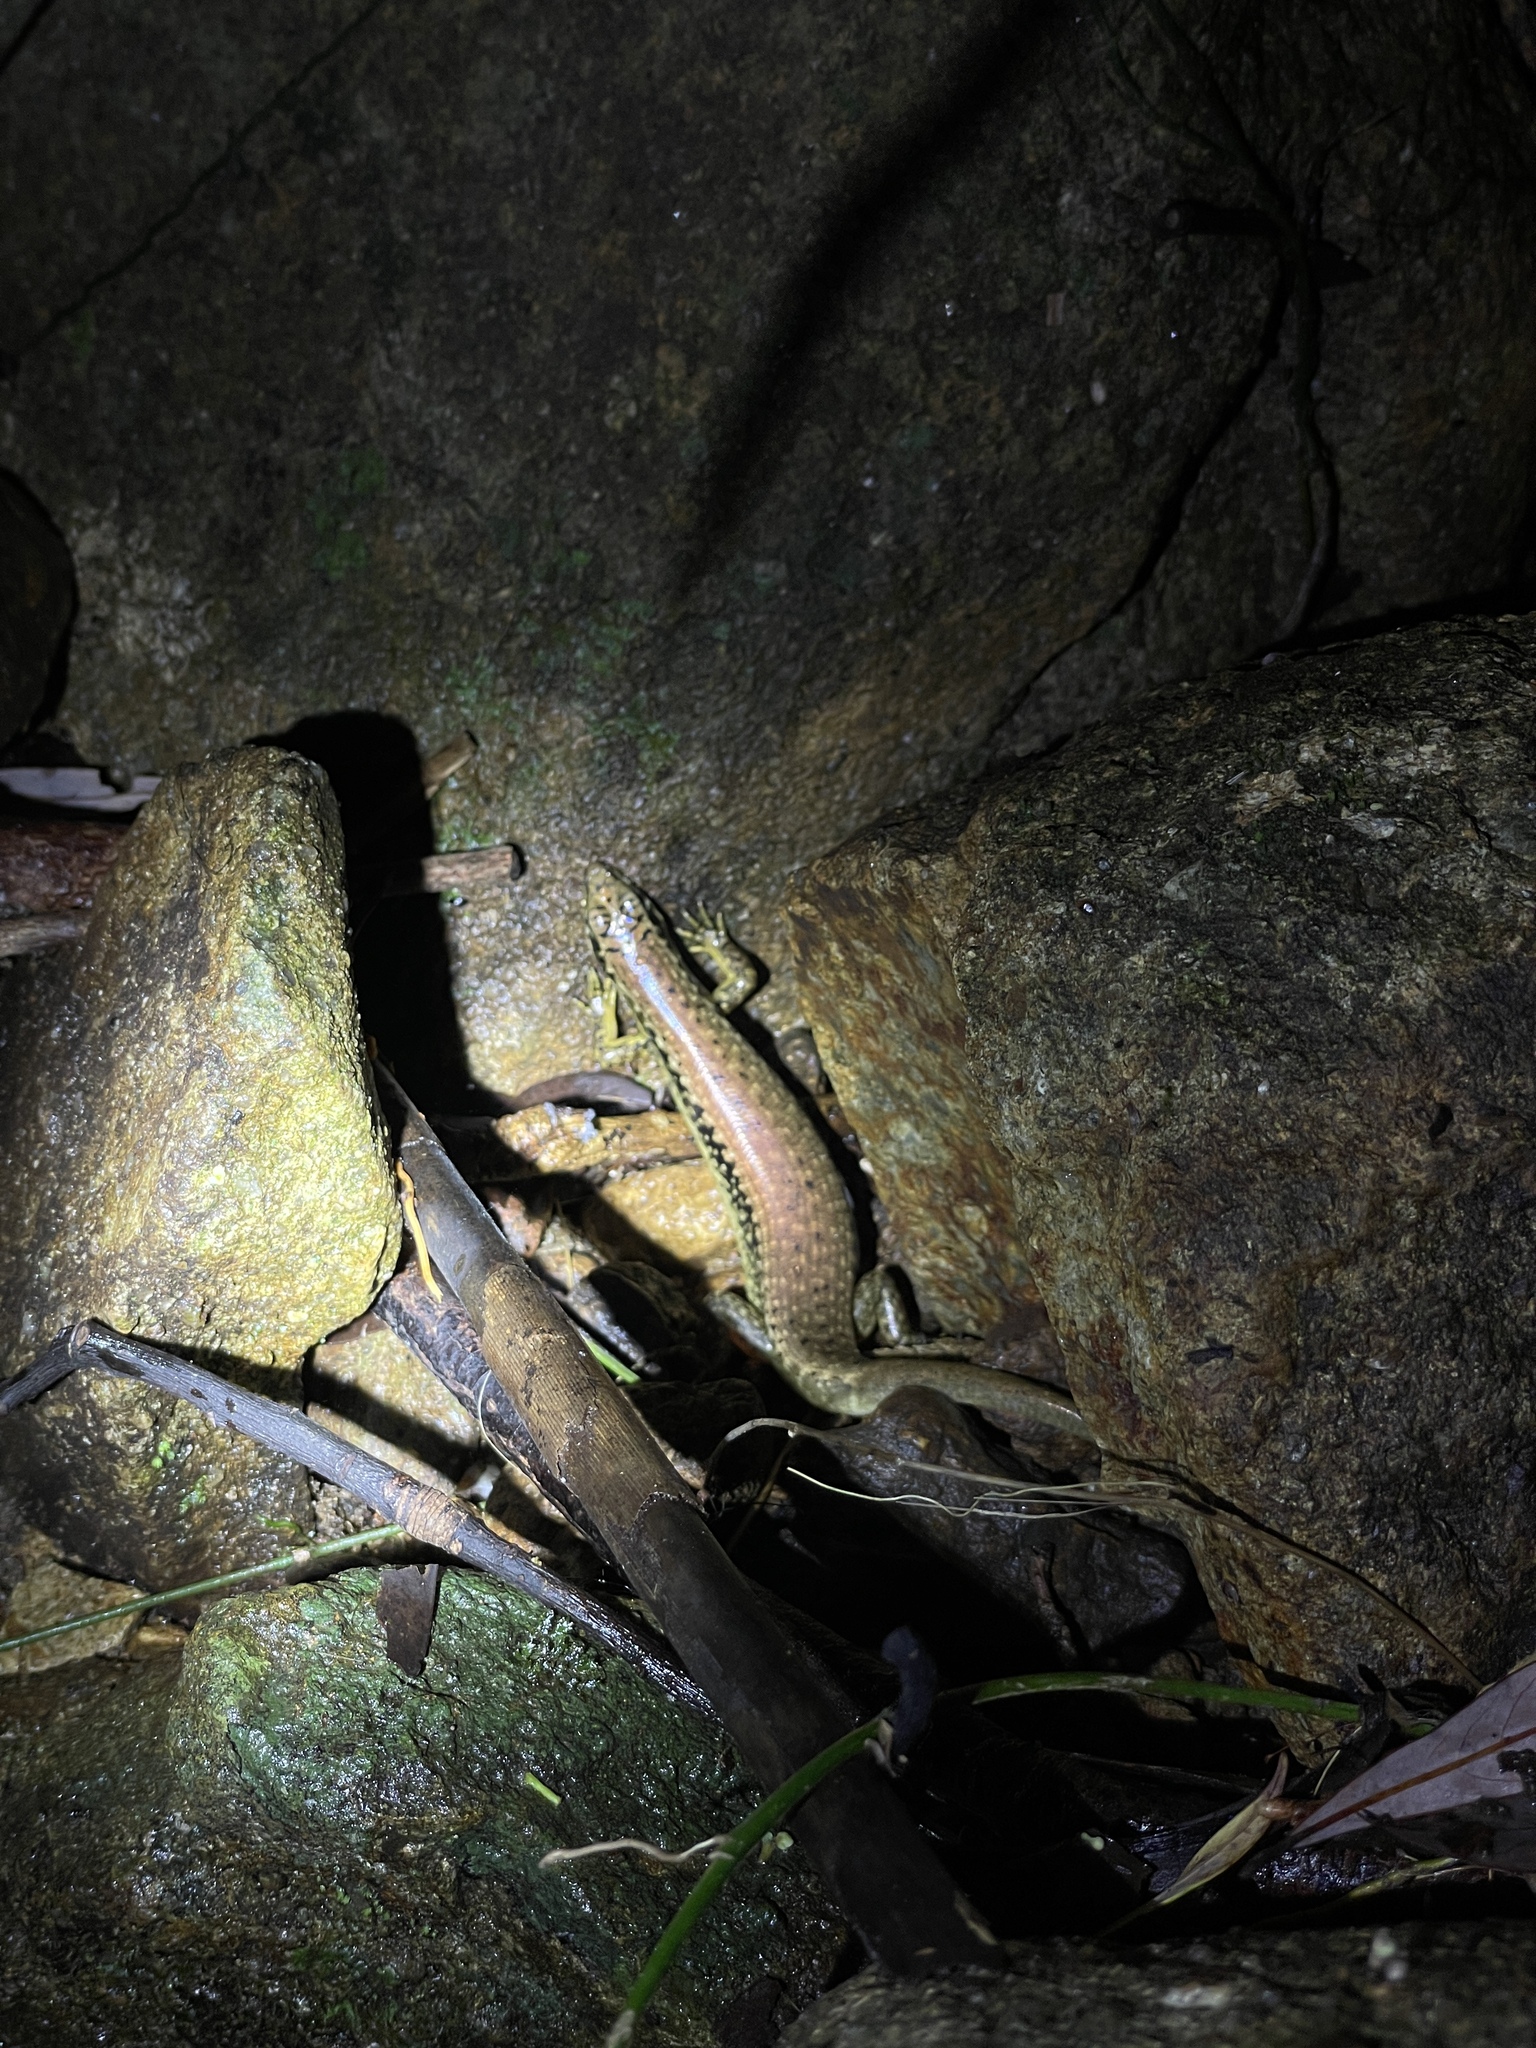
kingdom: Animalia
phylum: Chordata
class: Squamata
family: Scincidae
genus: Sphenomorphus
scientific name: Sphenomorphus incognitus
